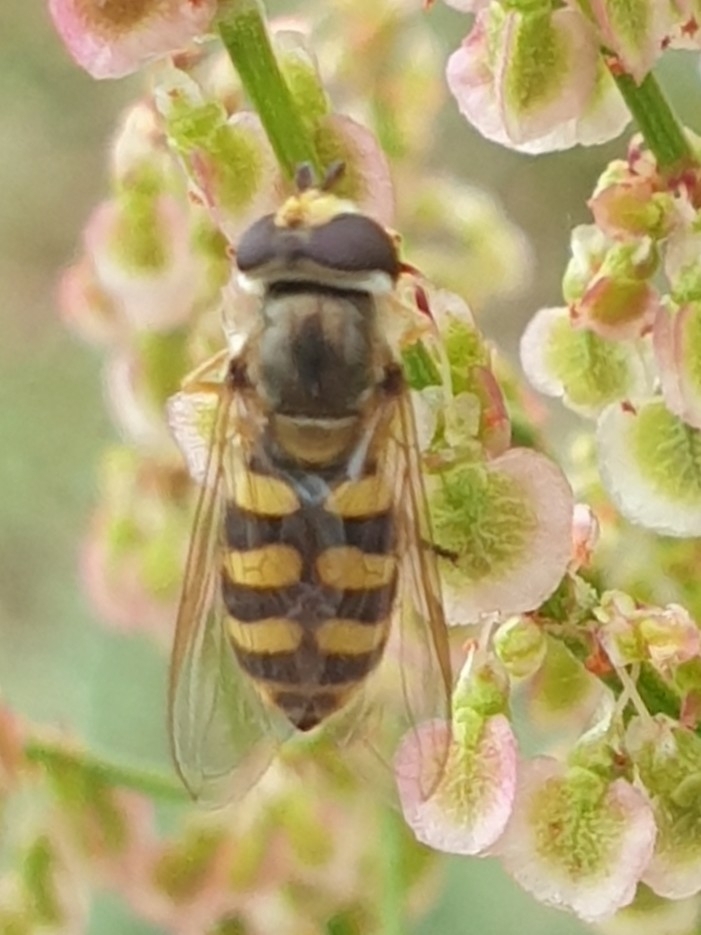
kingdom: Animalia
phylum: Arthropoda
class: Insecta
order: Diptera
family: Syrphidae
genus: Eupeodes
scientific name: Eupeodes corollae
